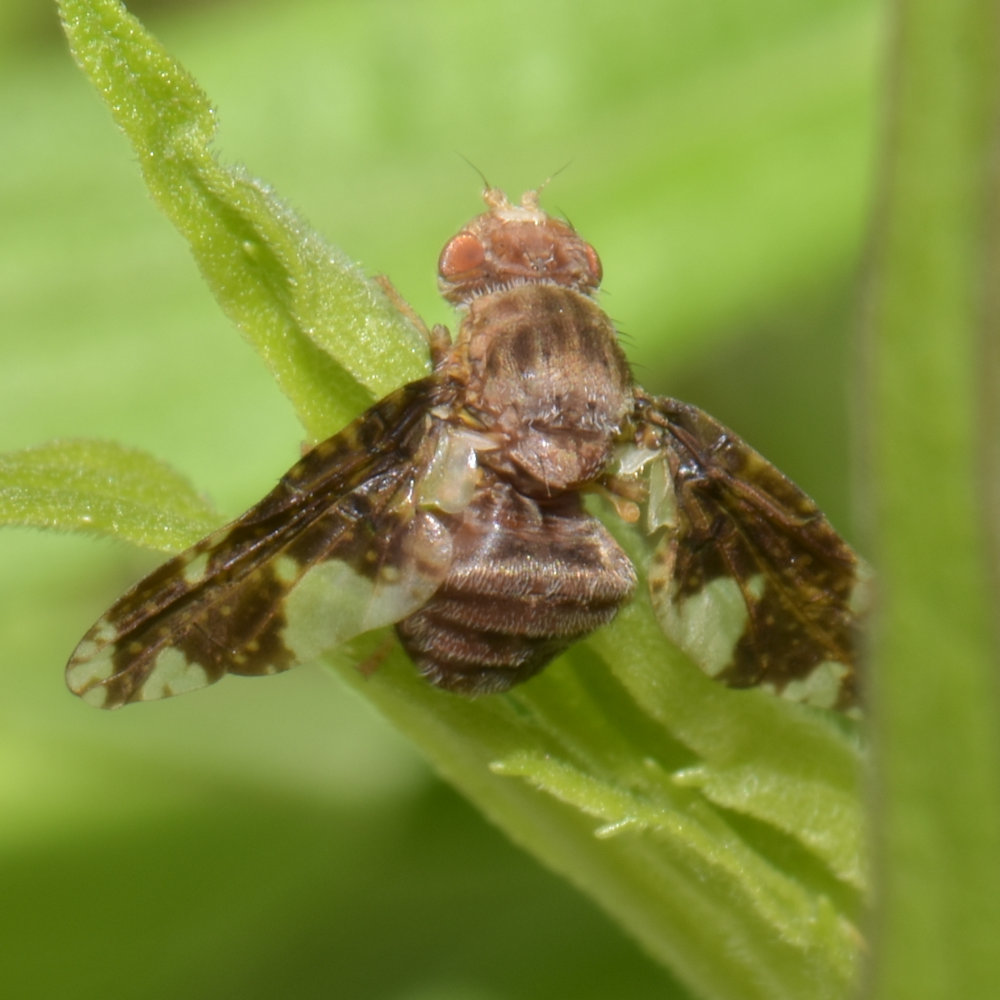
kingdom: Animalia
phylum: Arthropoda
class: Insecta
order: Diptera
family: Tephritidae
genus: Eurosta
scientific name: Eurosta solidaginis
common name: Goldenrod gall fly
